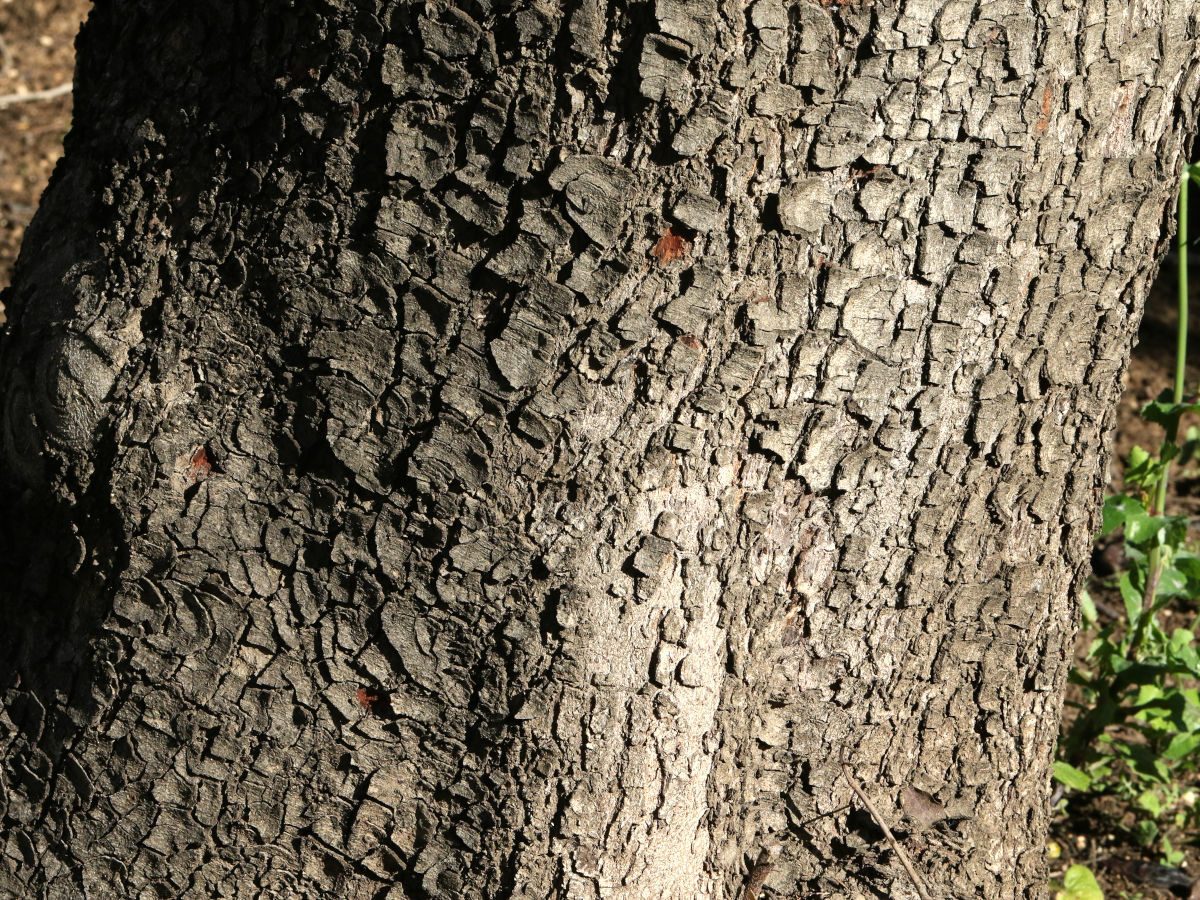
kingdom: Plantae
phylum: Tracheophyta
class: Magnoliopsida
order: Fabales
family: Fabaceae
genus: Ceratonia
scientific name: Ceratonia siliqua
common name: Carob
